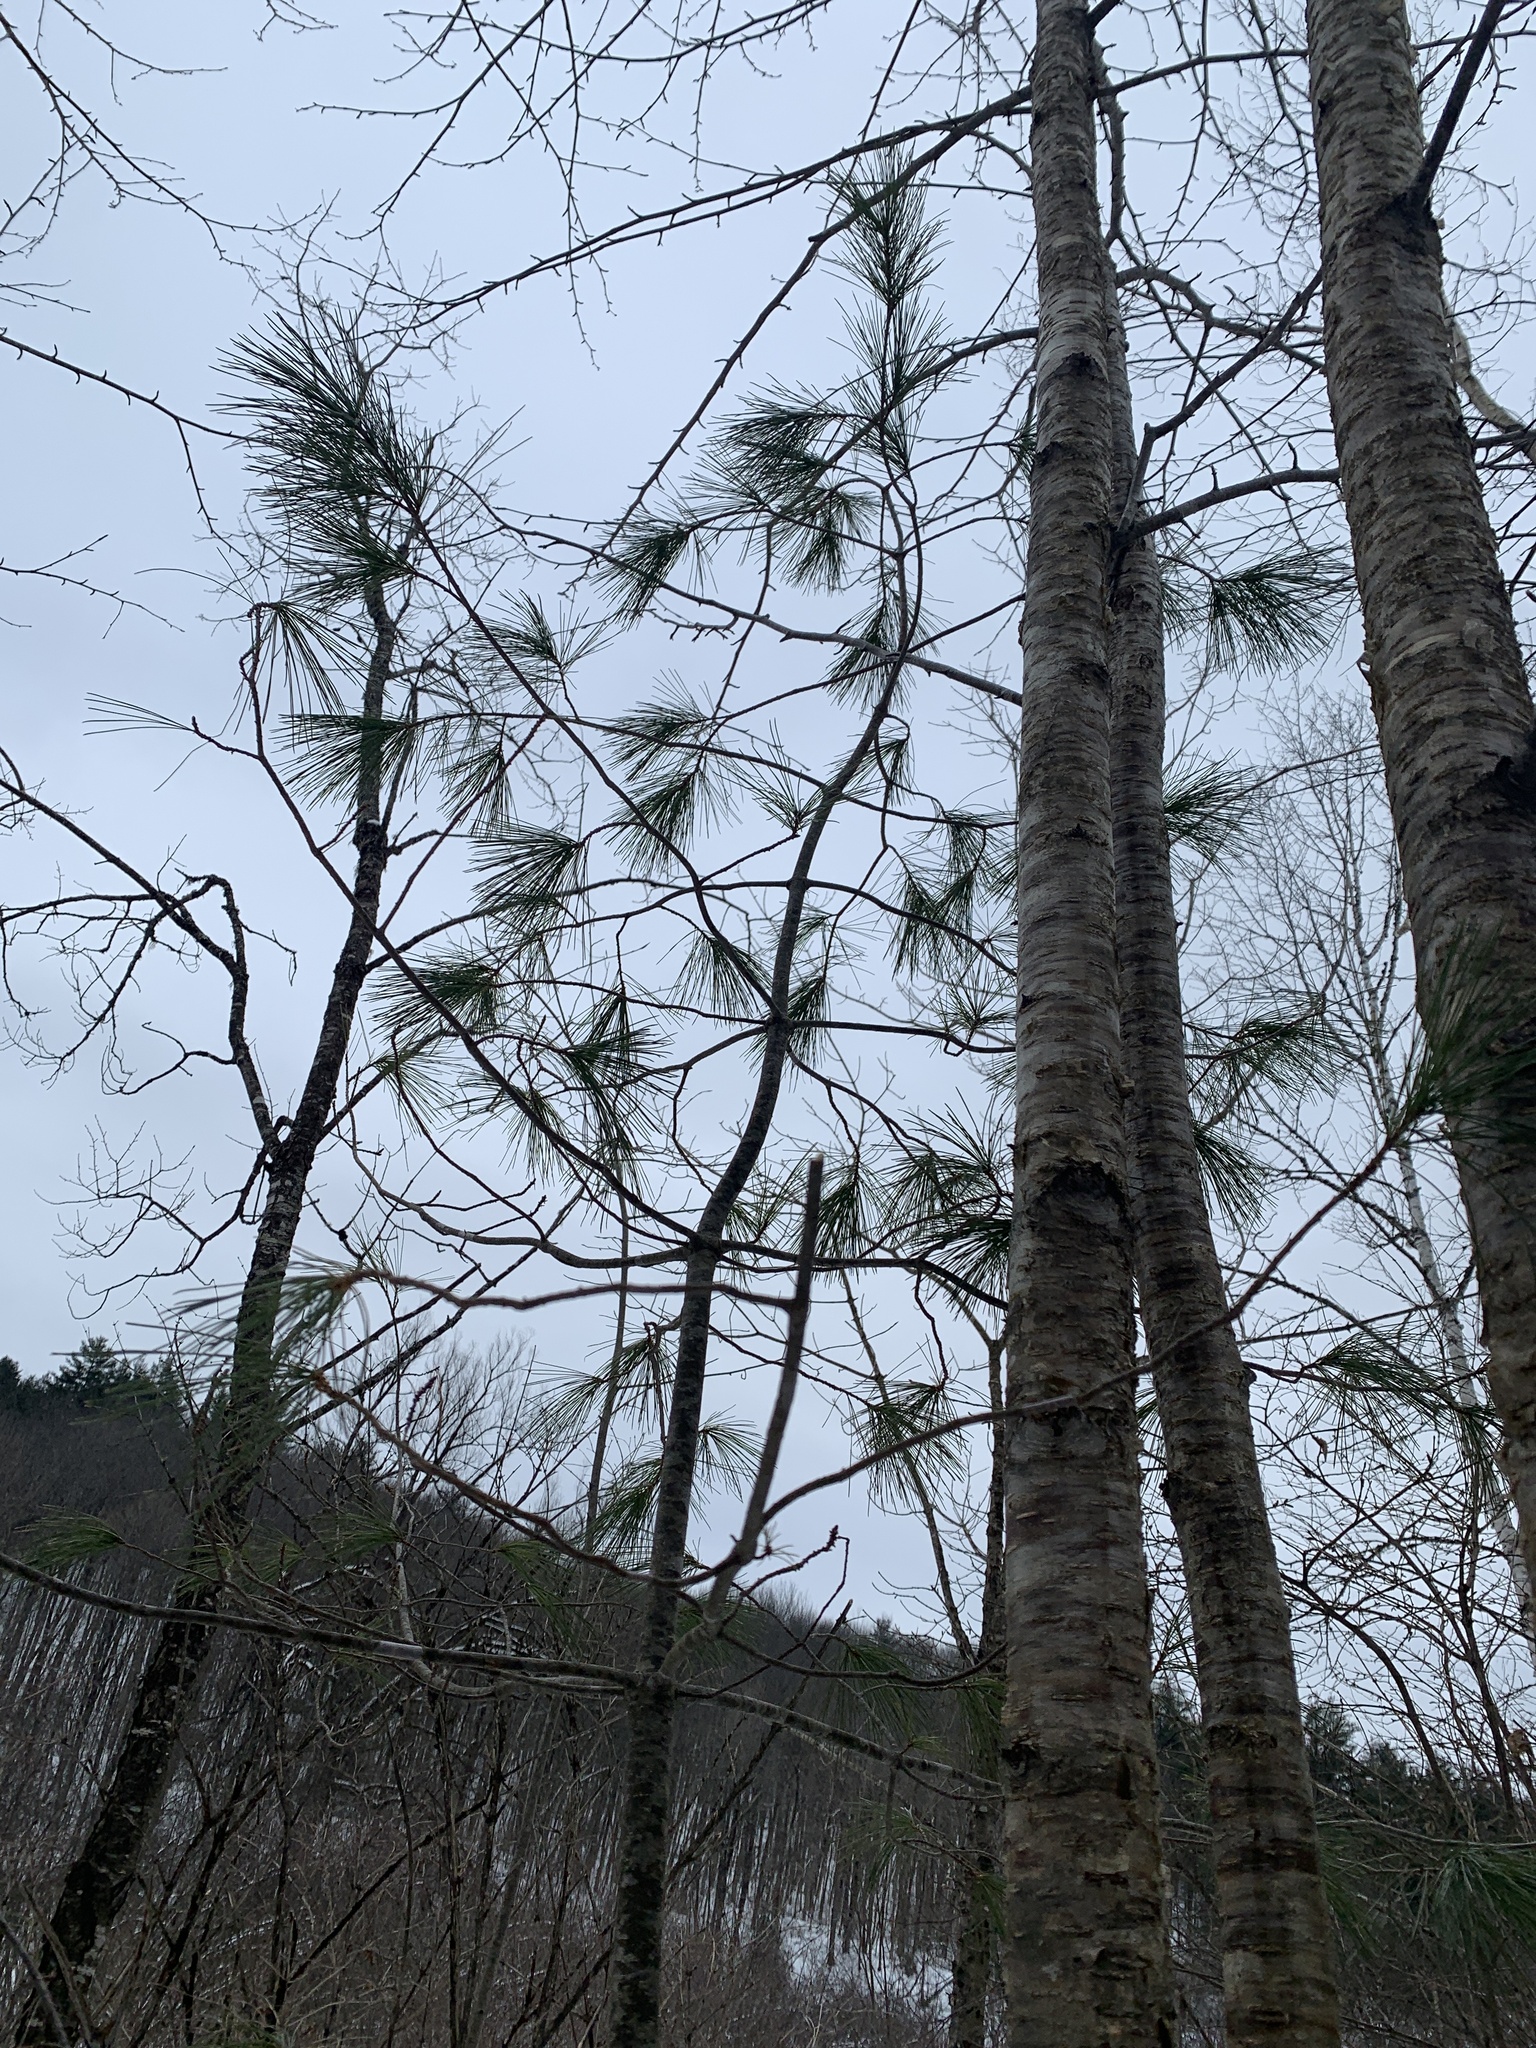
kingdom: Plantae
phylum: Tracheophyta
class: Pinopsida
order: Pinales
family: Pinaceae
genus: Pinus
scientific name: Pinus strobus
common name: Weymouth pine
